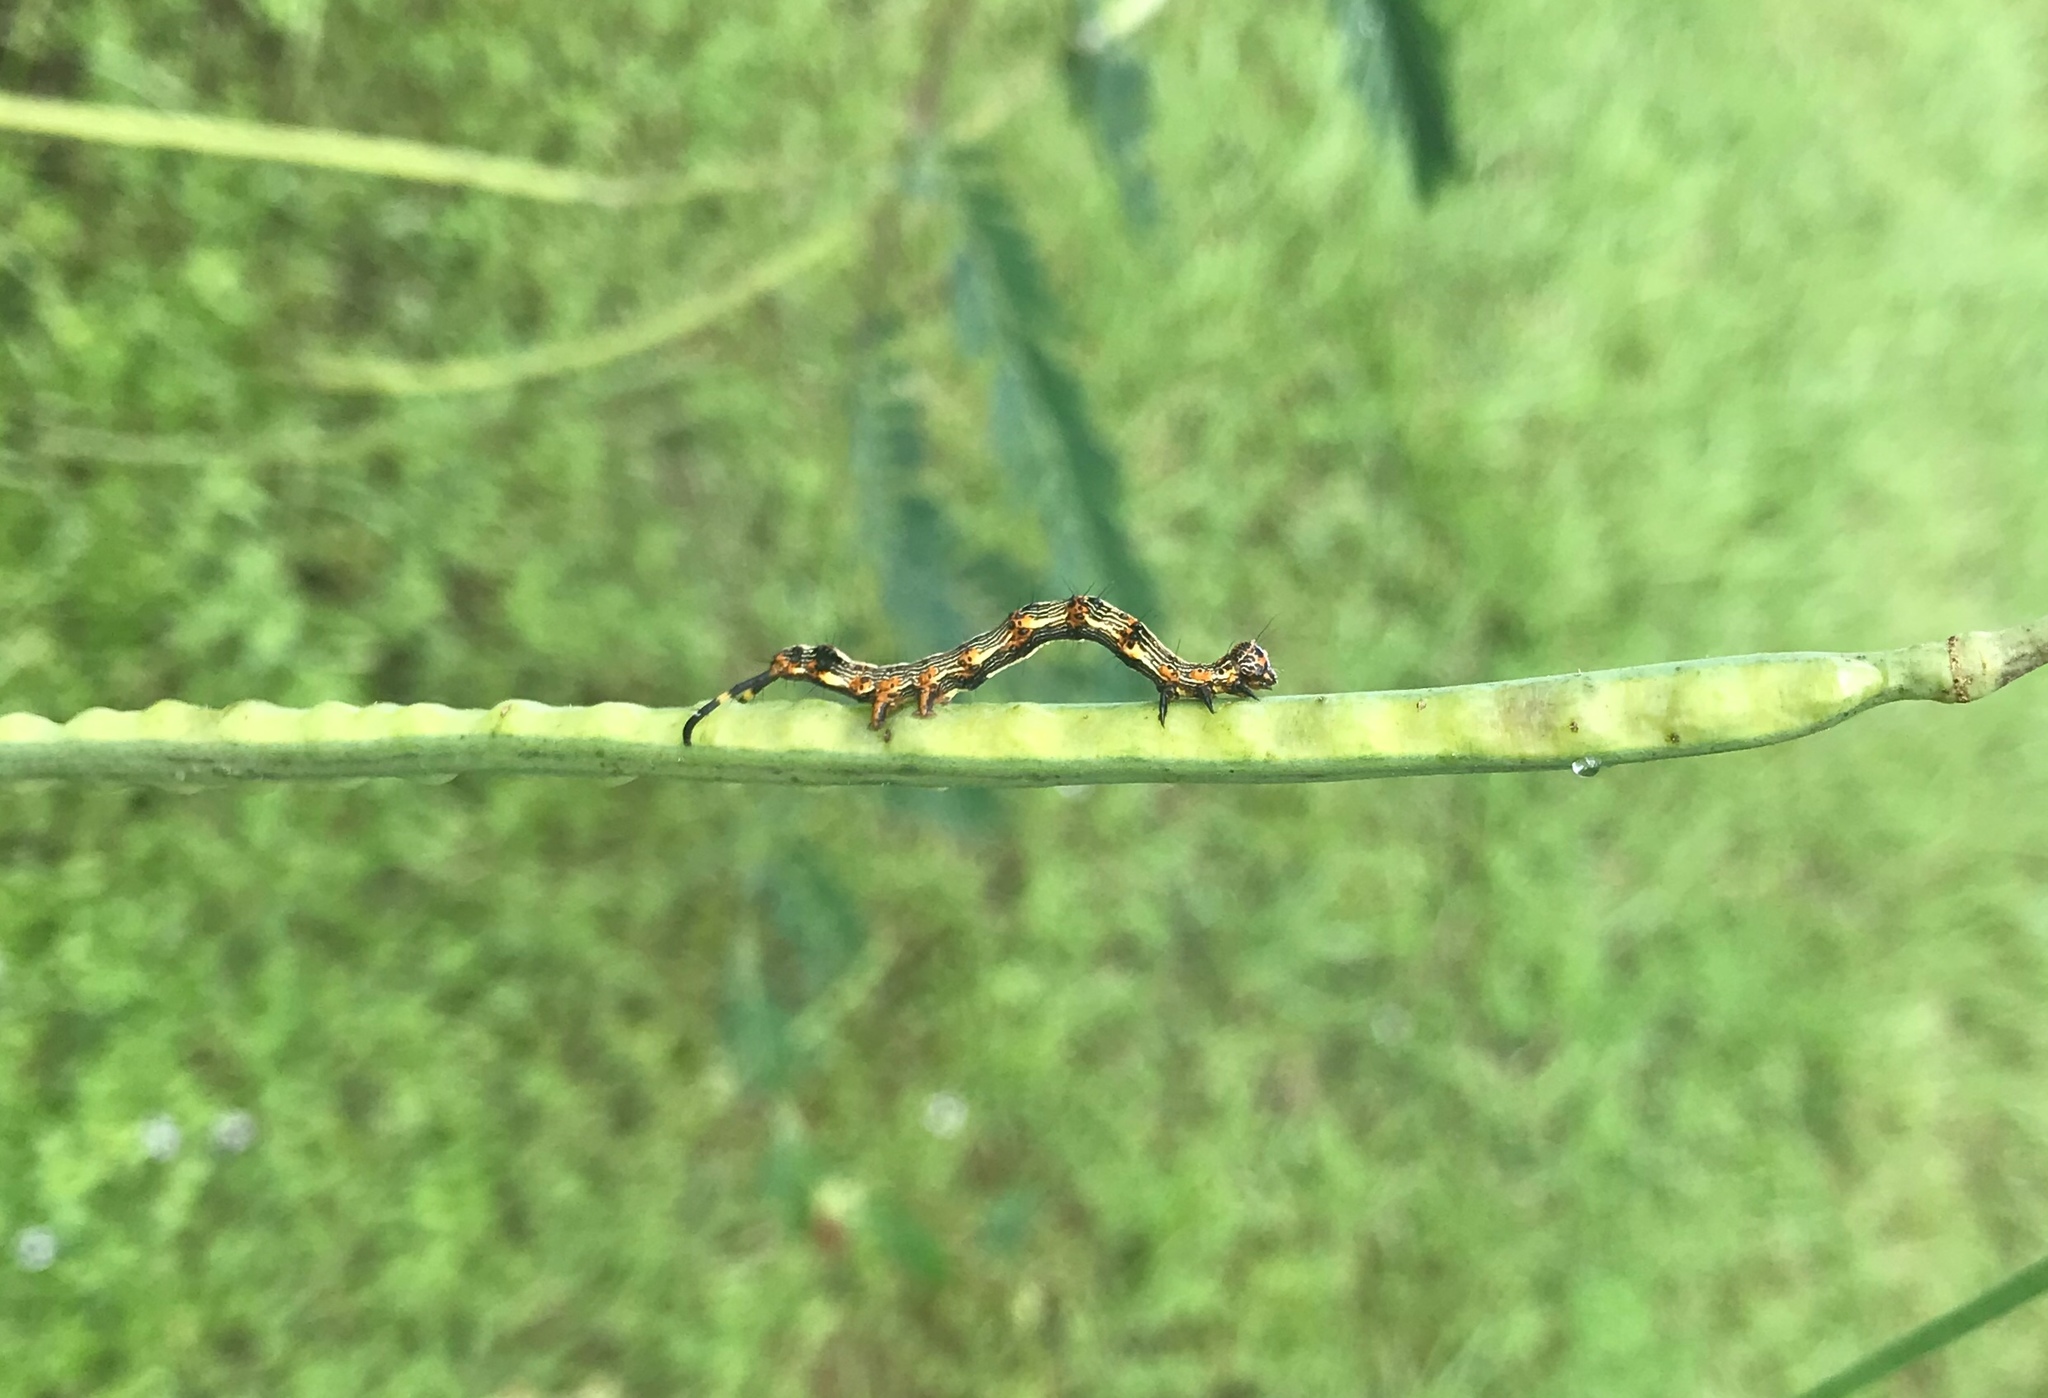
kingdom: Animalia
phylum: Arthropoda
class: Insecta
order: Lepidoptera
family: Erebidae
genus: Selenisa
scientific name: Selenisa sueroides
